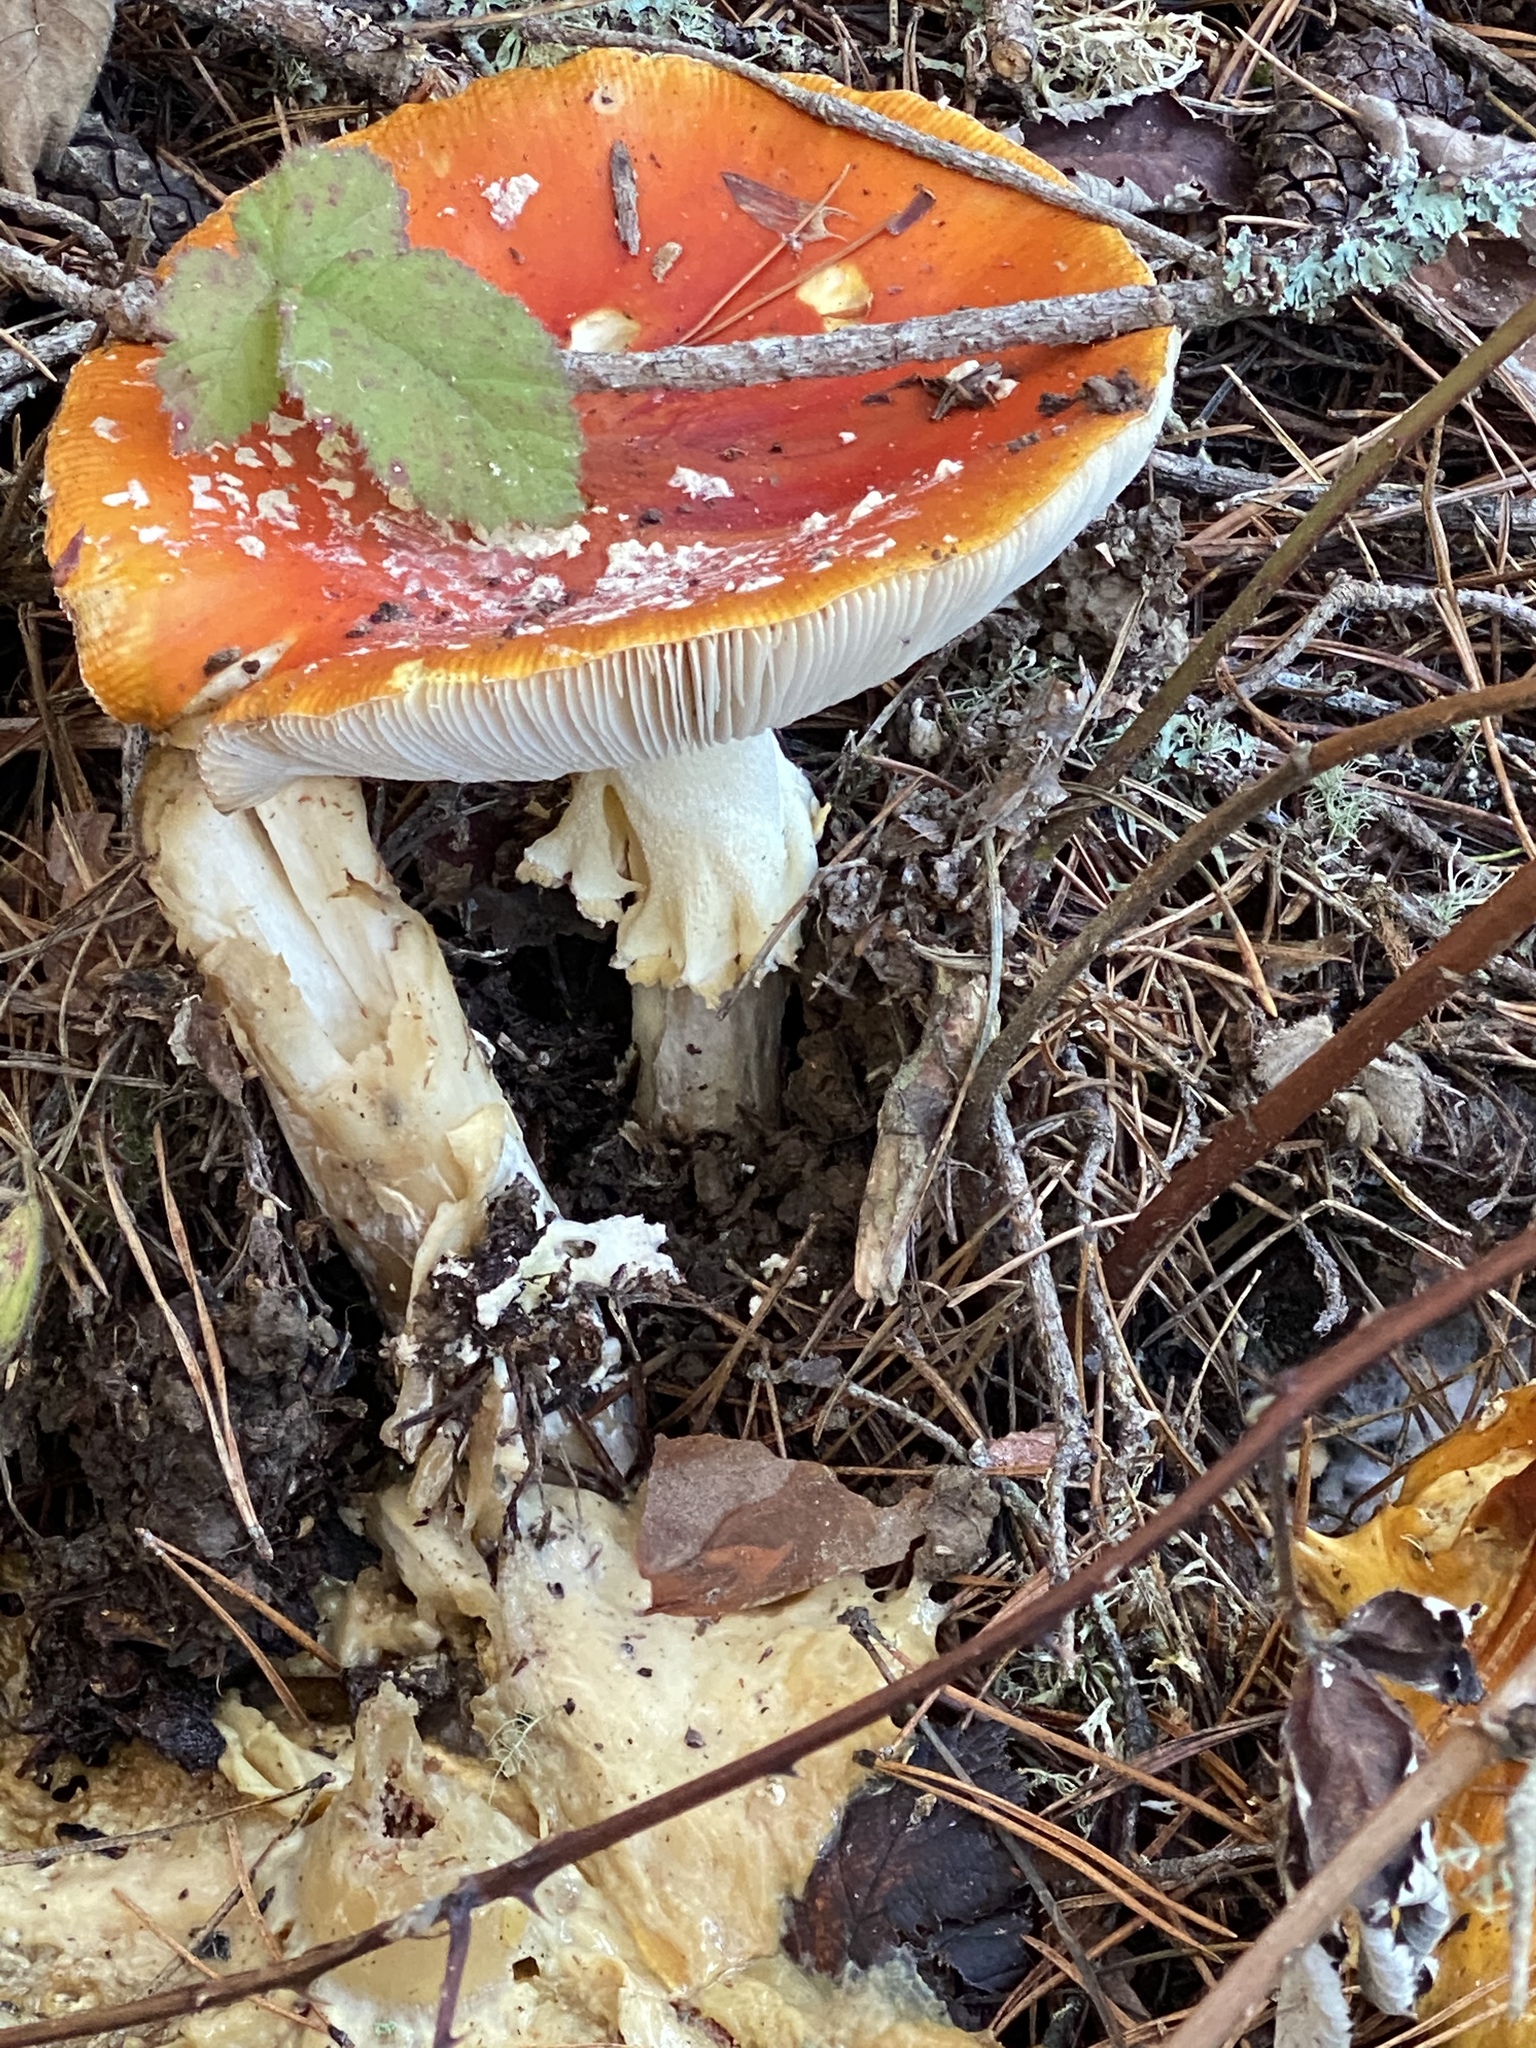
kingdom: Fungi
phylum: Basidiomycota
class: Agaricomycetes
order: Agaricales
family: Amanitaceae
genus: Amanita
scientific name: Amanita muscaria
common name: Fly agaric
